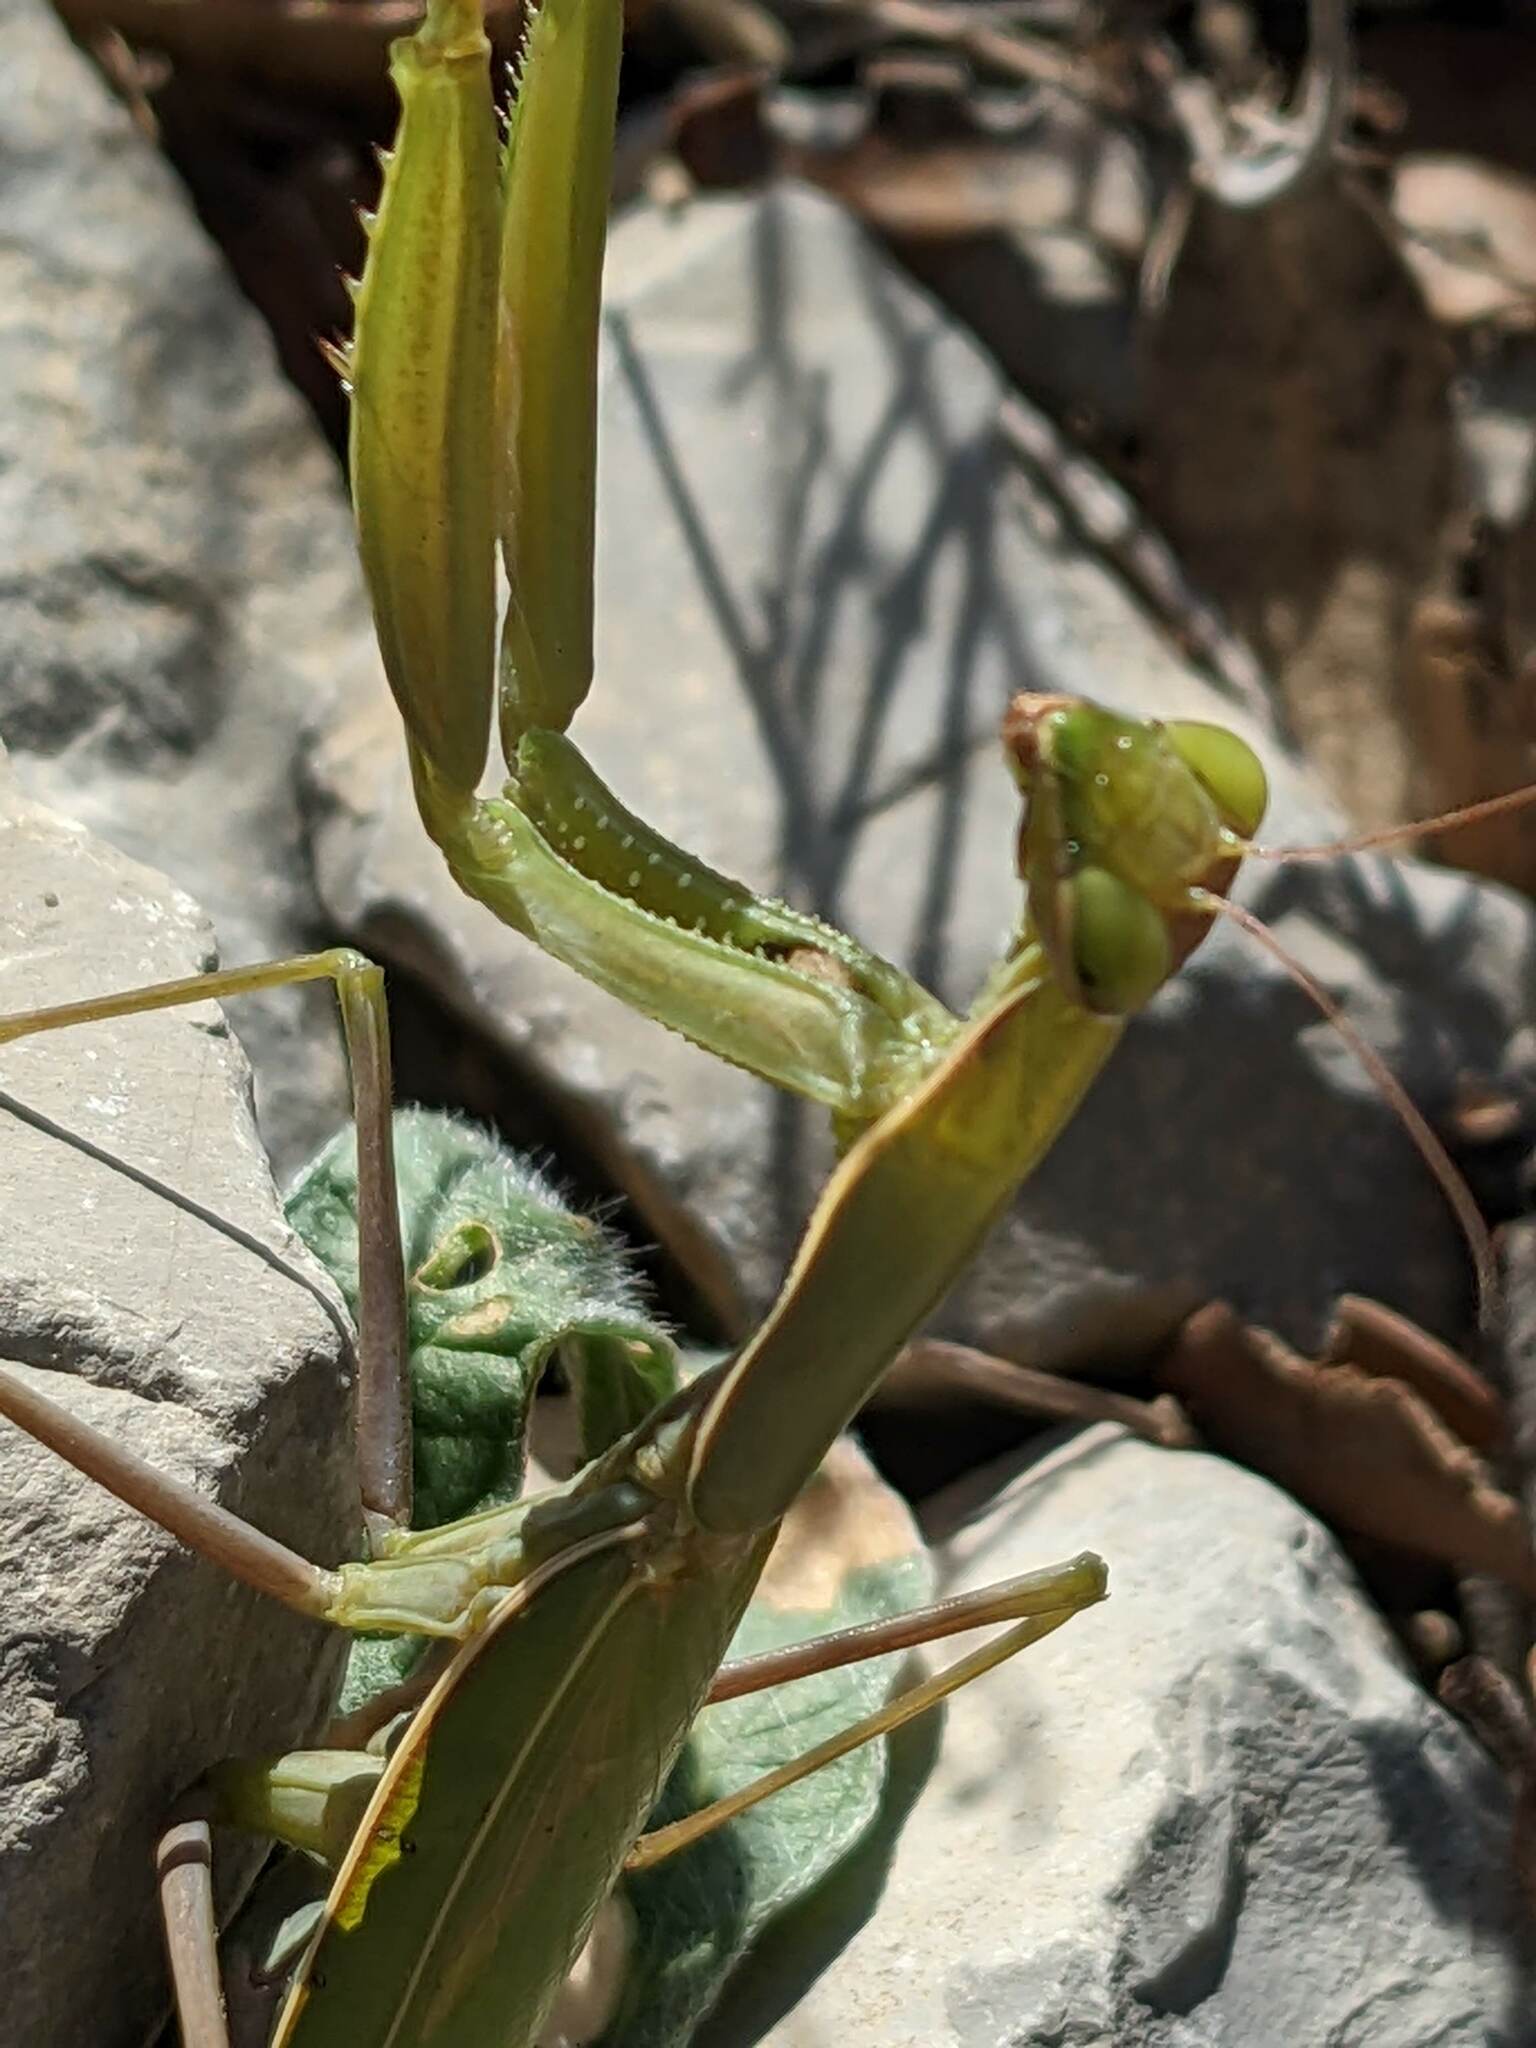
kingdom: Animalia
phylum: Arthropoda
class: Insecta
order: Mantodea
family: Mantidae
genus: Mantis
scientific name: Mantis religiosa
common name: Praying mantis
